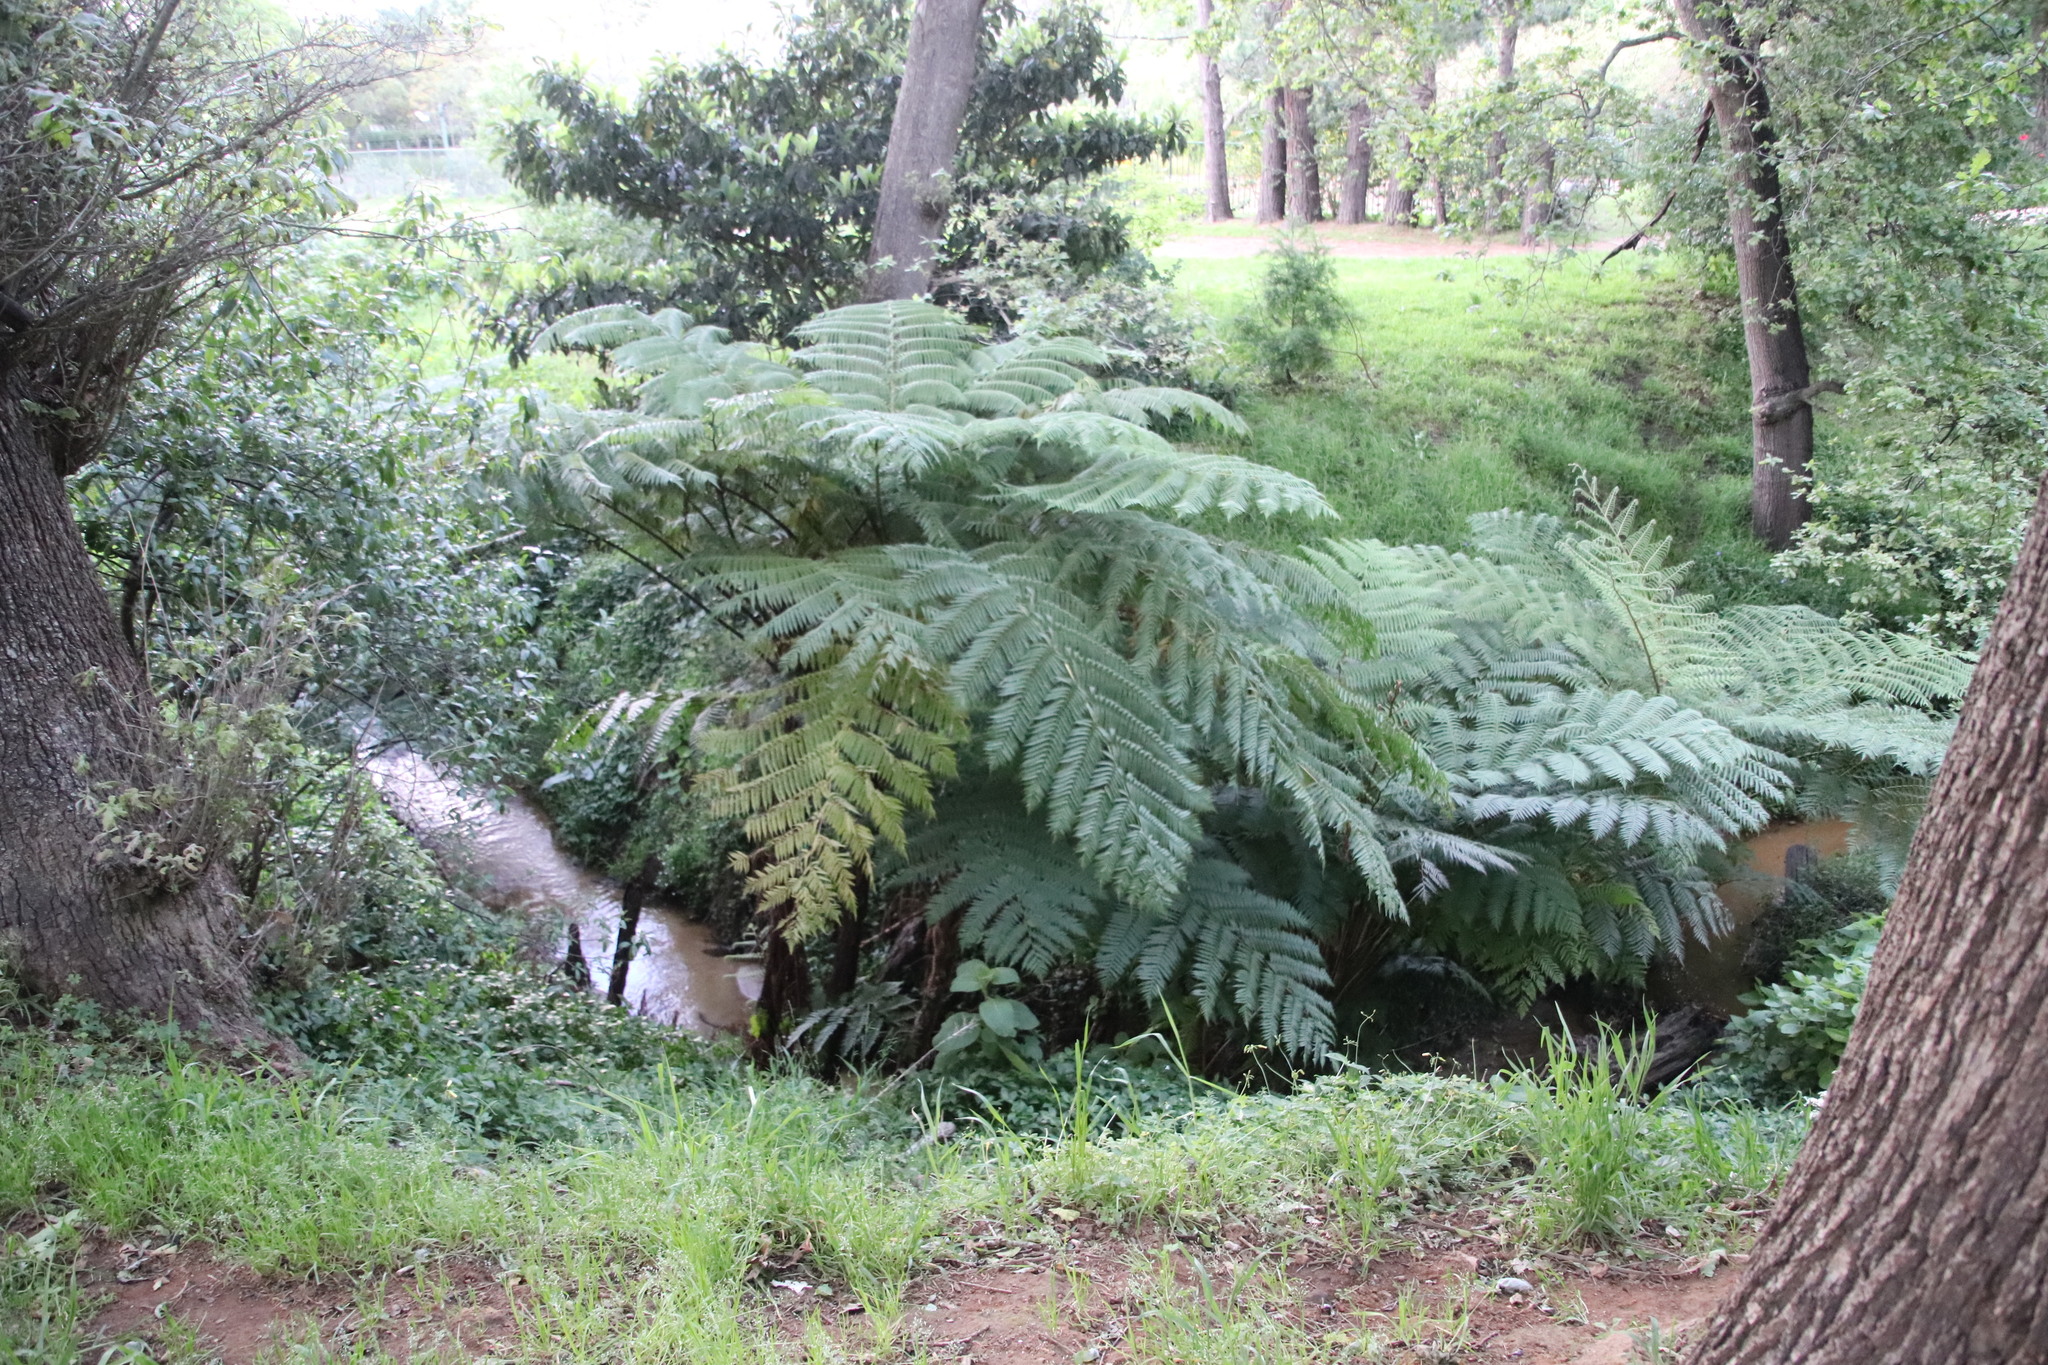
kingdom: Plantae
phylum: Tracheophyta
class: Polypodiopsida
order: Cyatheales
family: Cyatheaceae
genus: Sphaeropteris
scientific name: Sphaeropteris cooperi
